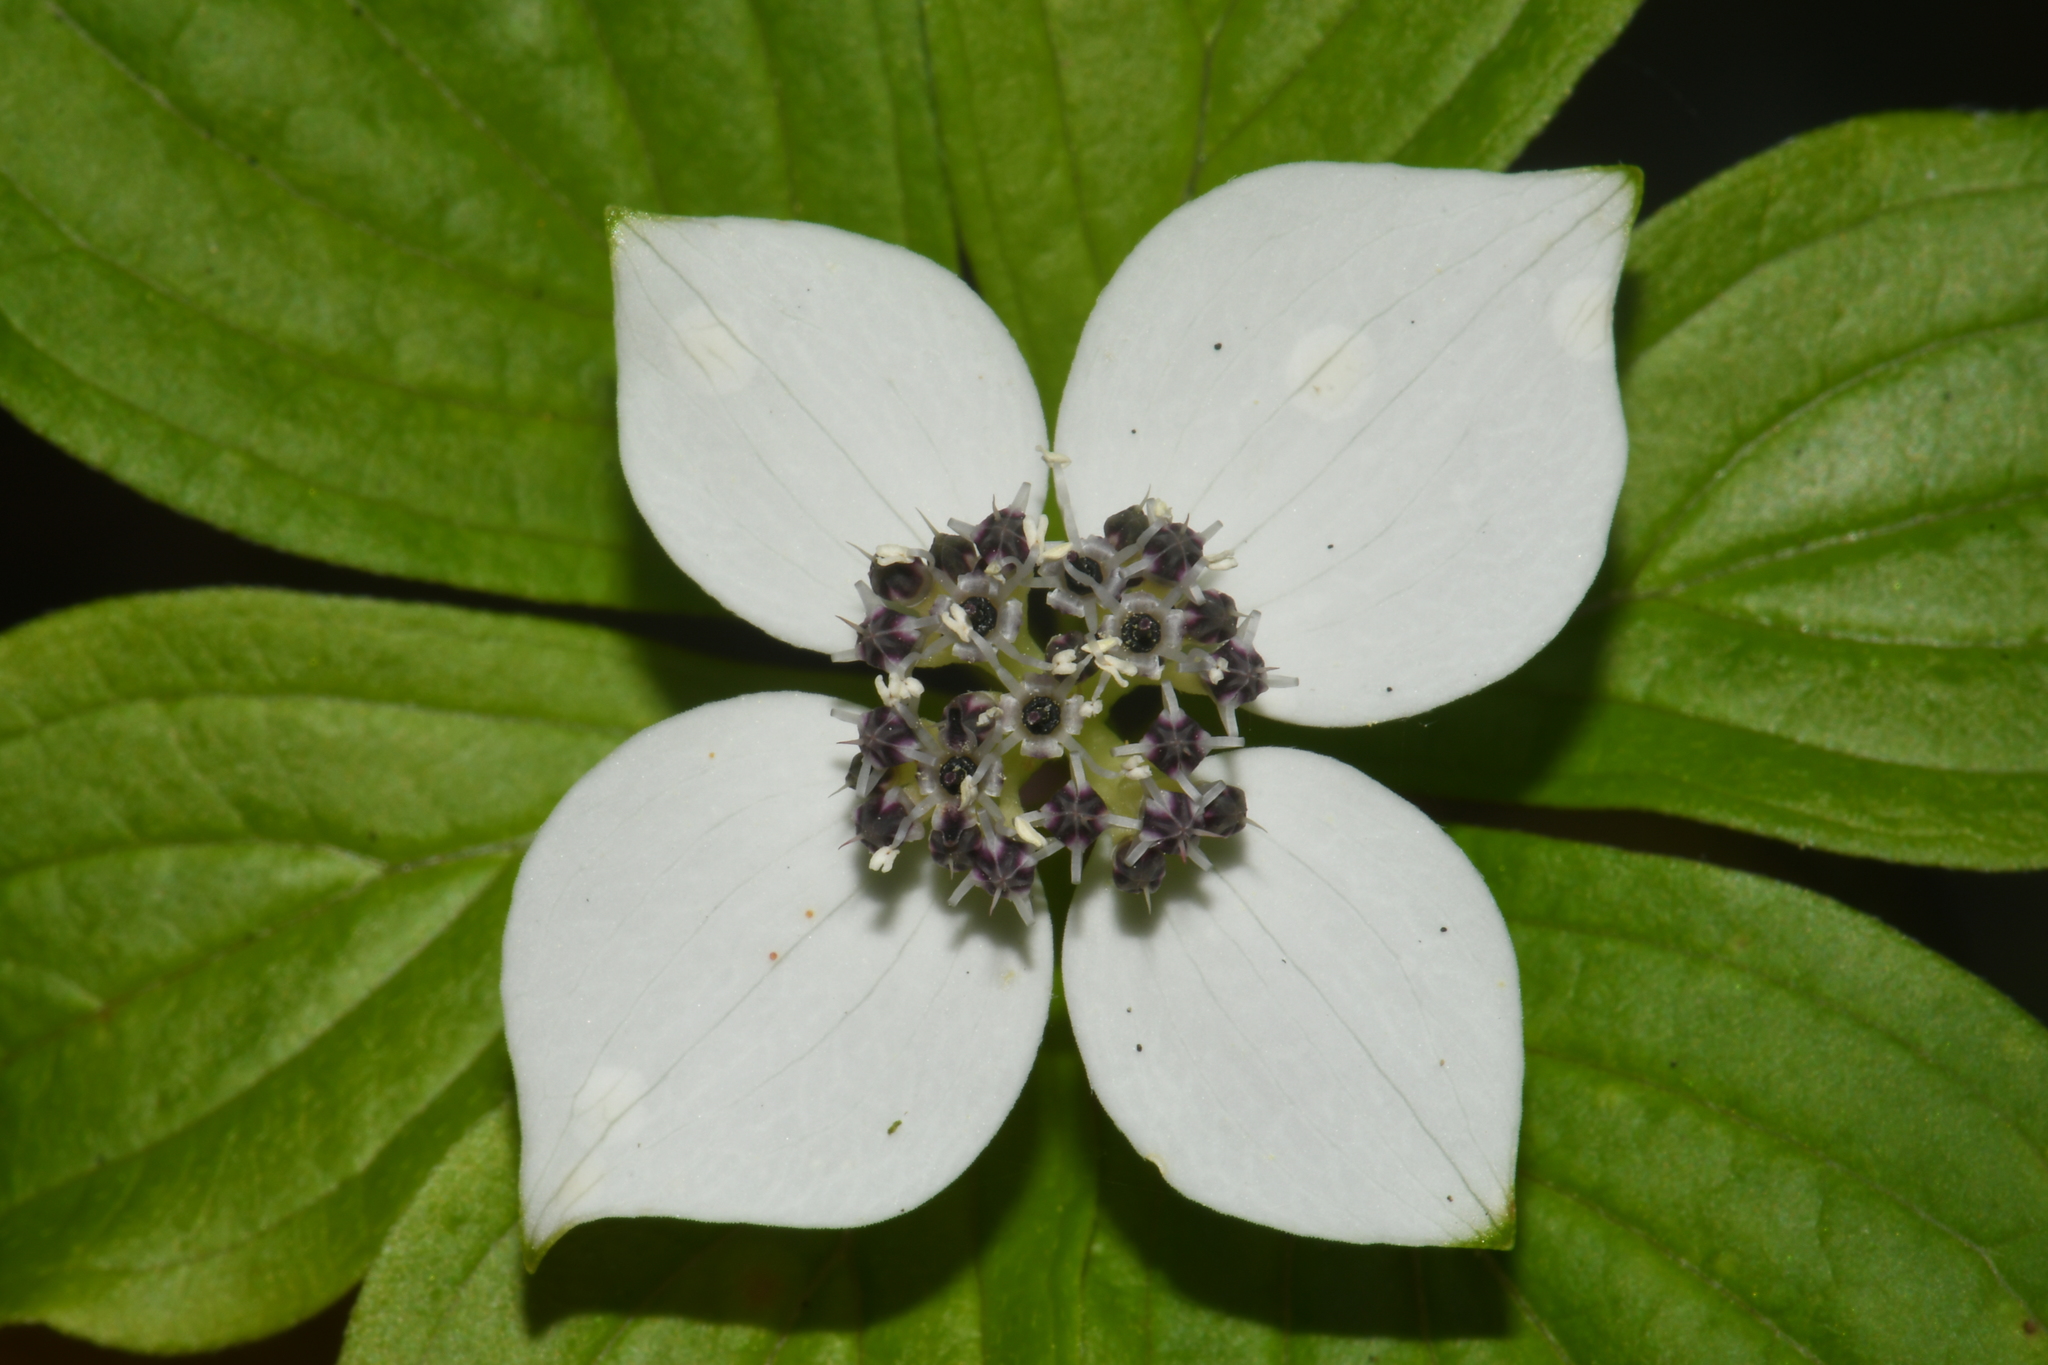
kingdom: Plantae
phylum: Tracheophyta
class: Magnoliopsida
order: Cornales
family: Cornaceae
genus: Cornus
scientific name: Cornus unalaschkensis
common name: Alaska bunchberry
